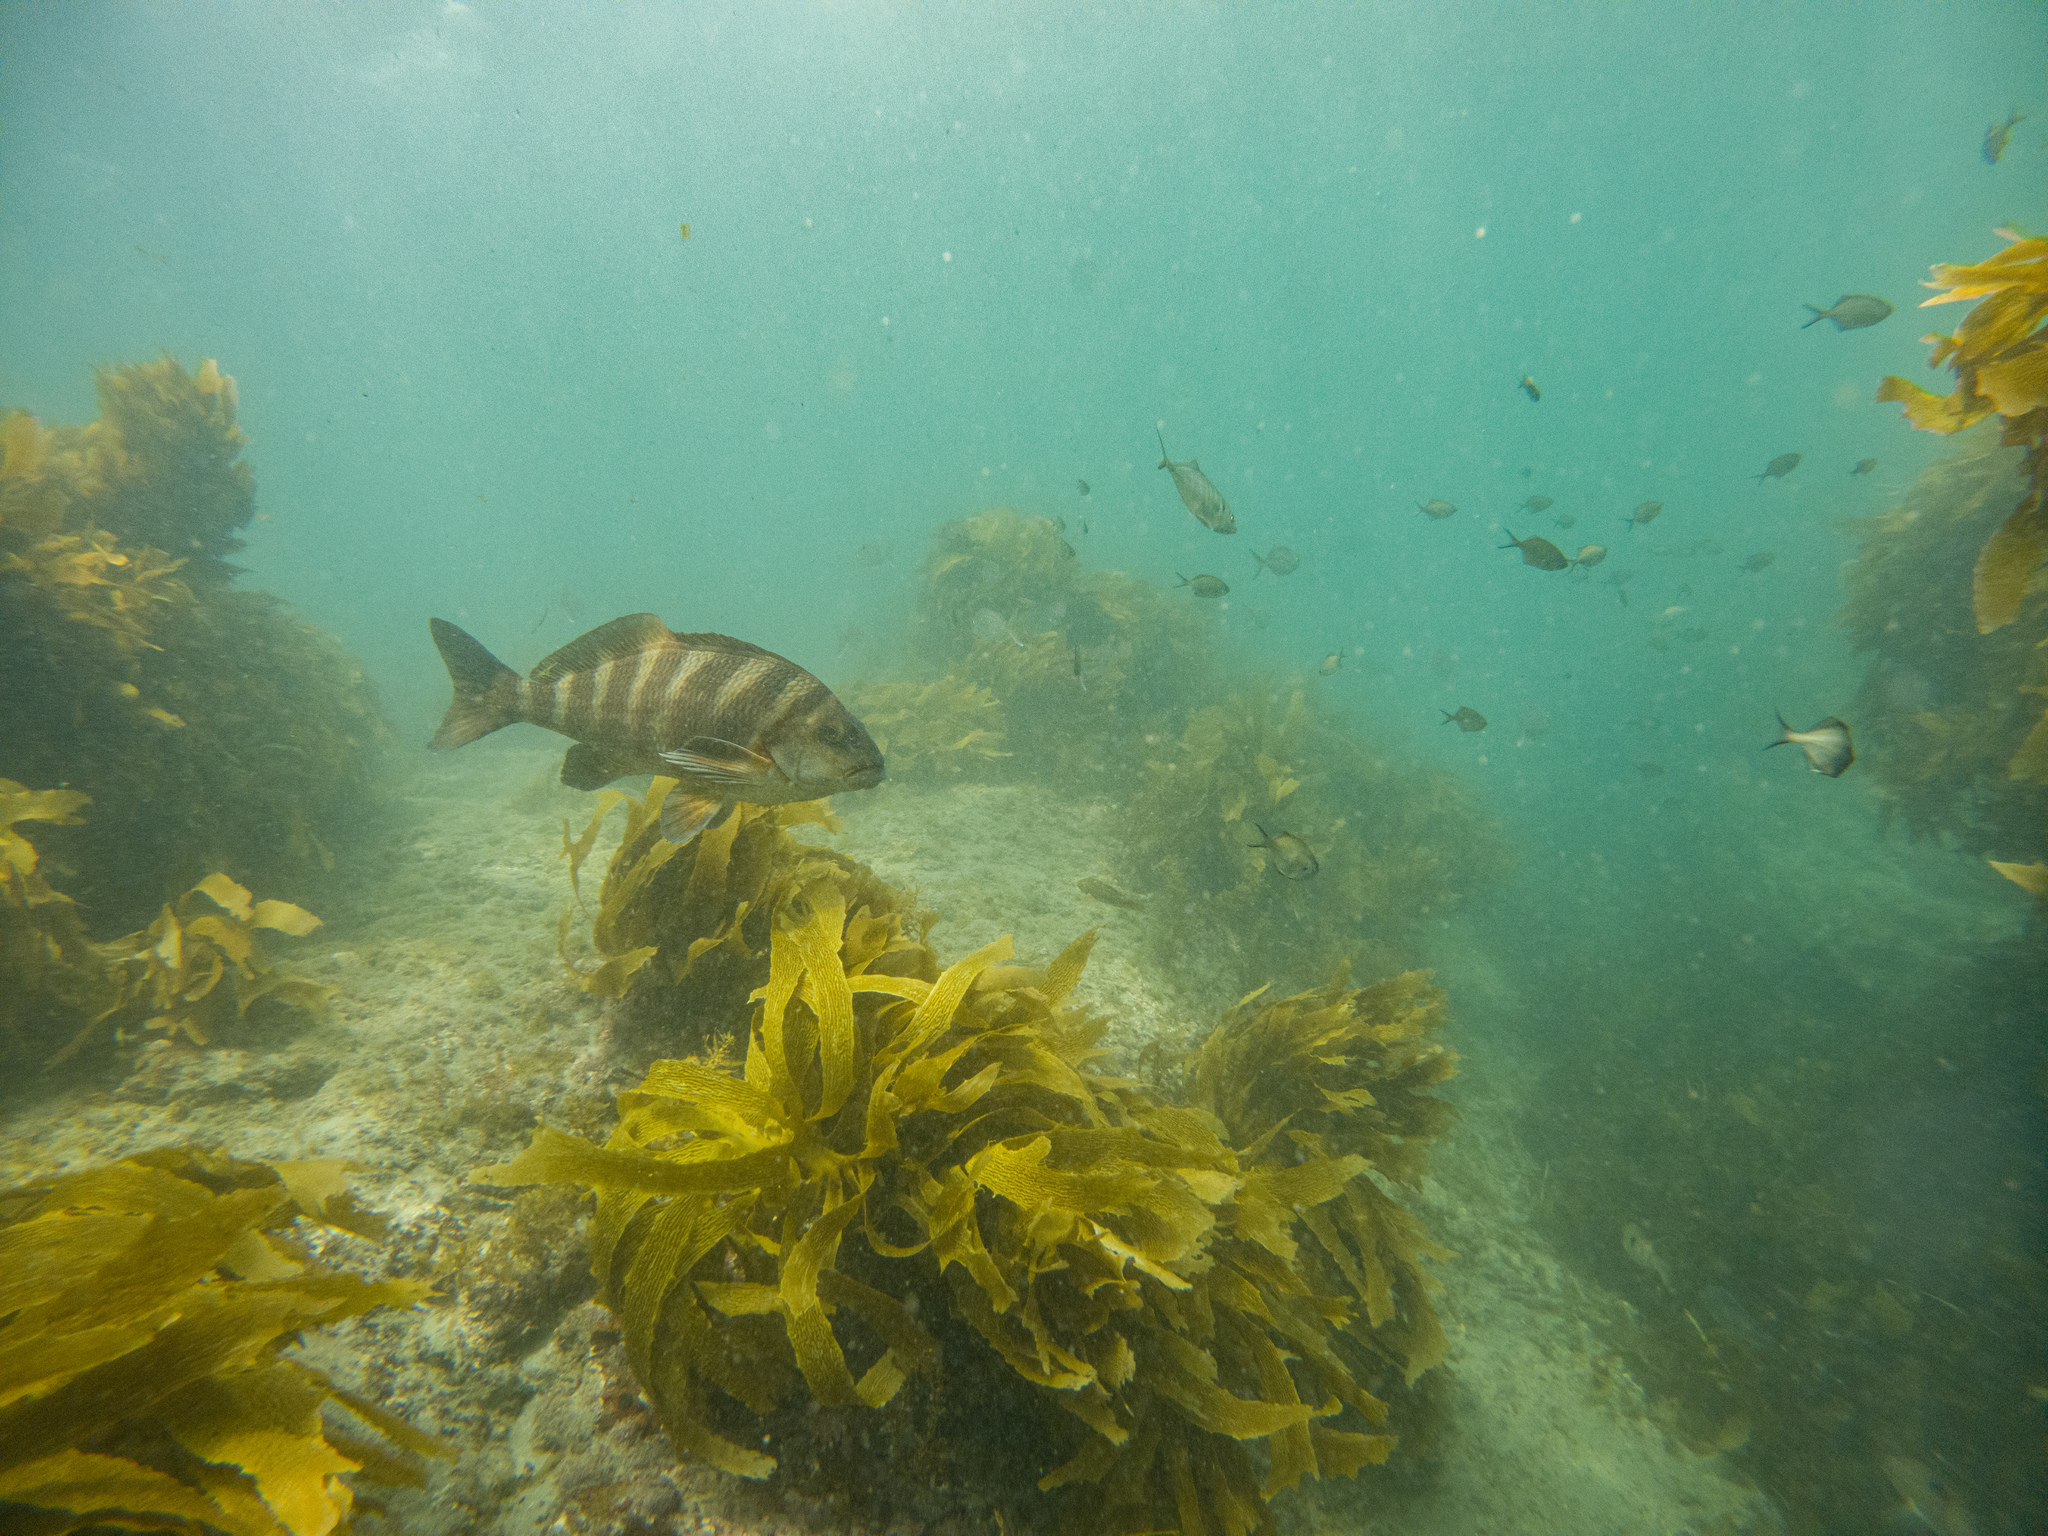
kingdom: Animalia
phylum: Chordata
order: Perciformes
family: Cheilodactylidae
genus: Cheilodactylus
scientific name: Cheilodactylus spectabilis
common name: Red moki
